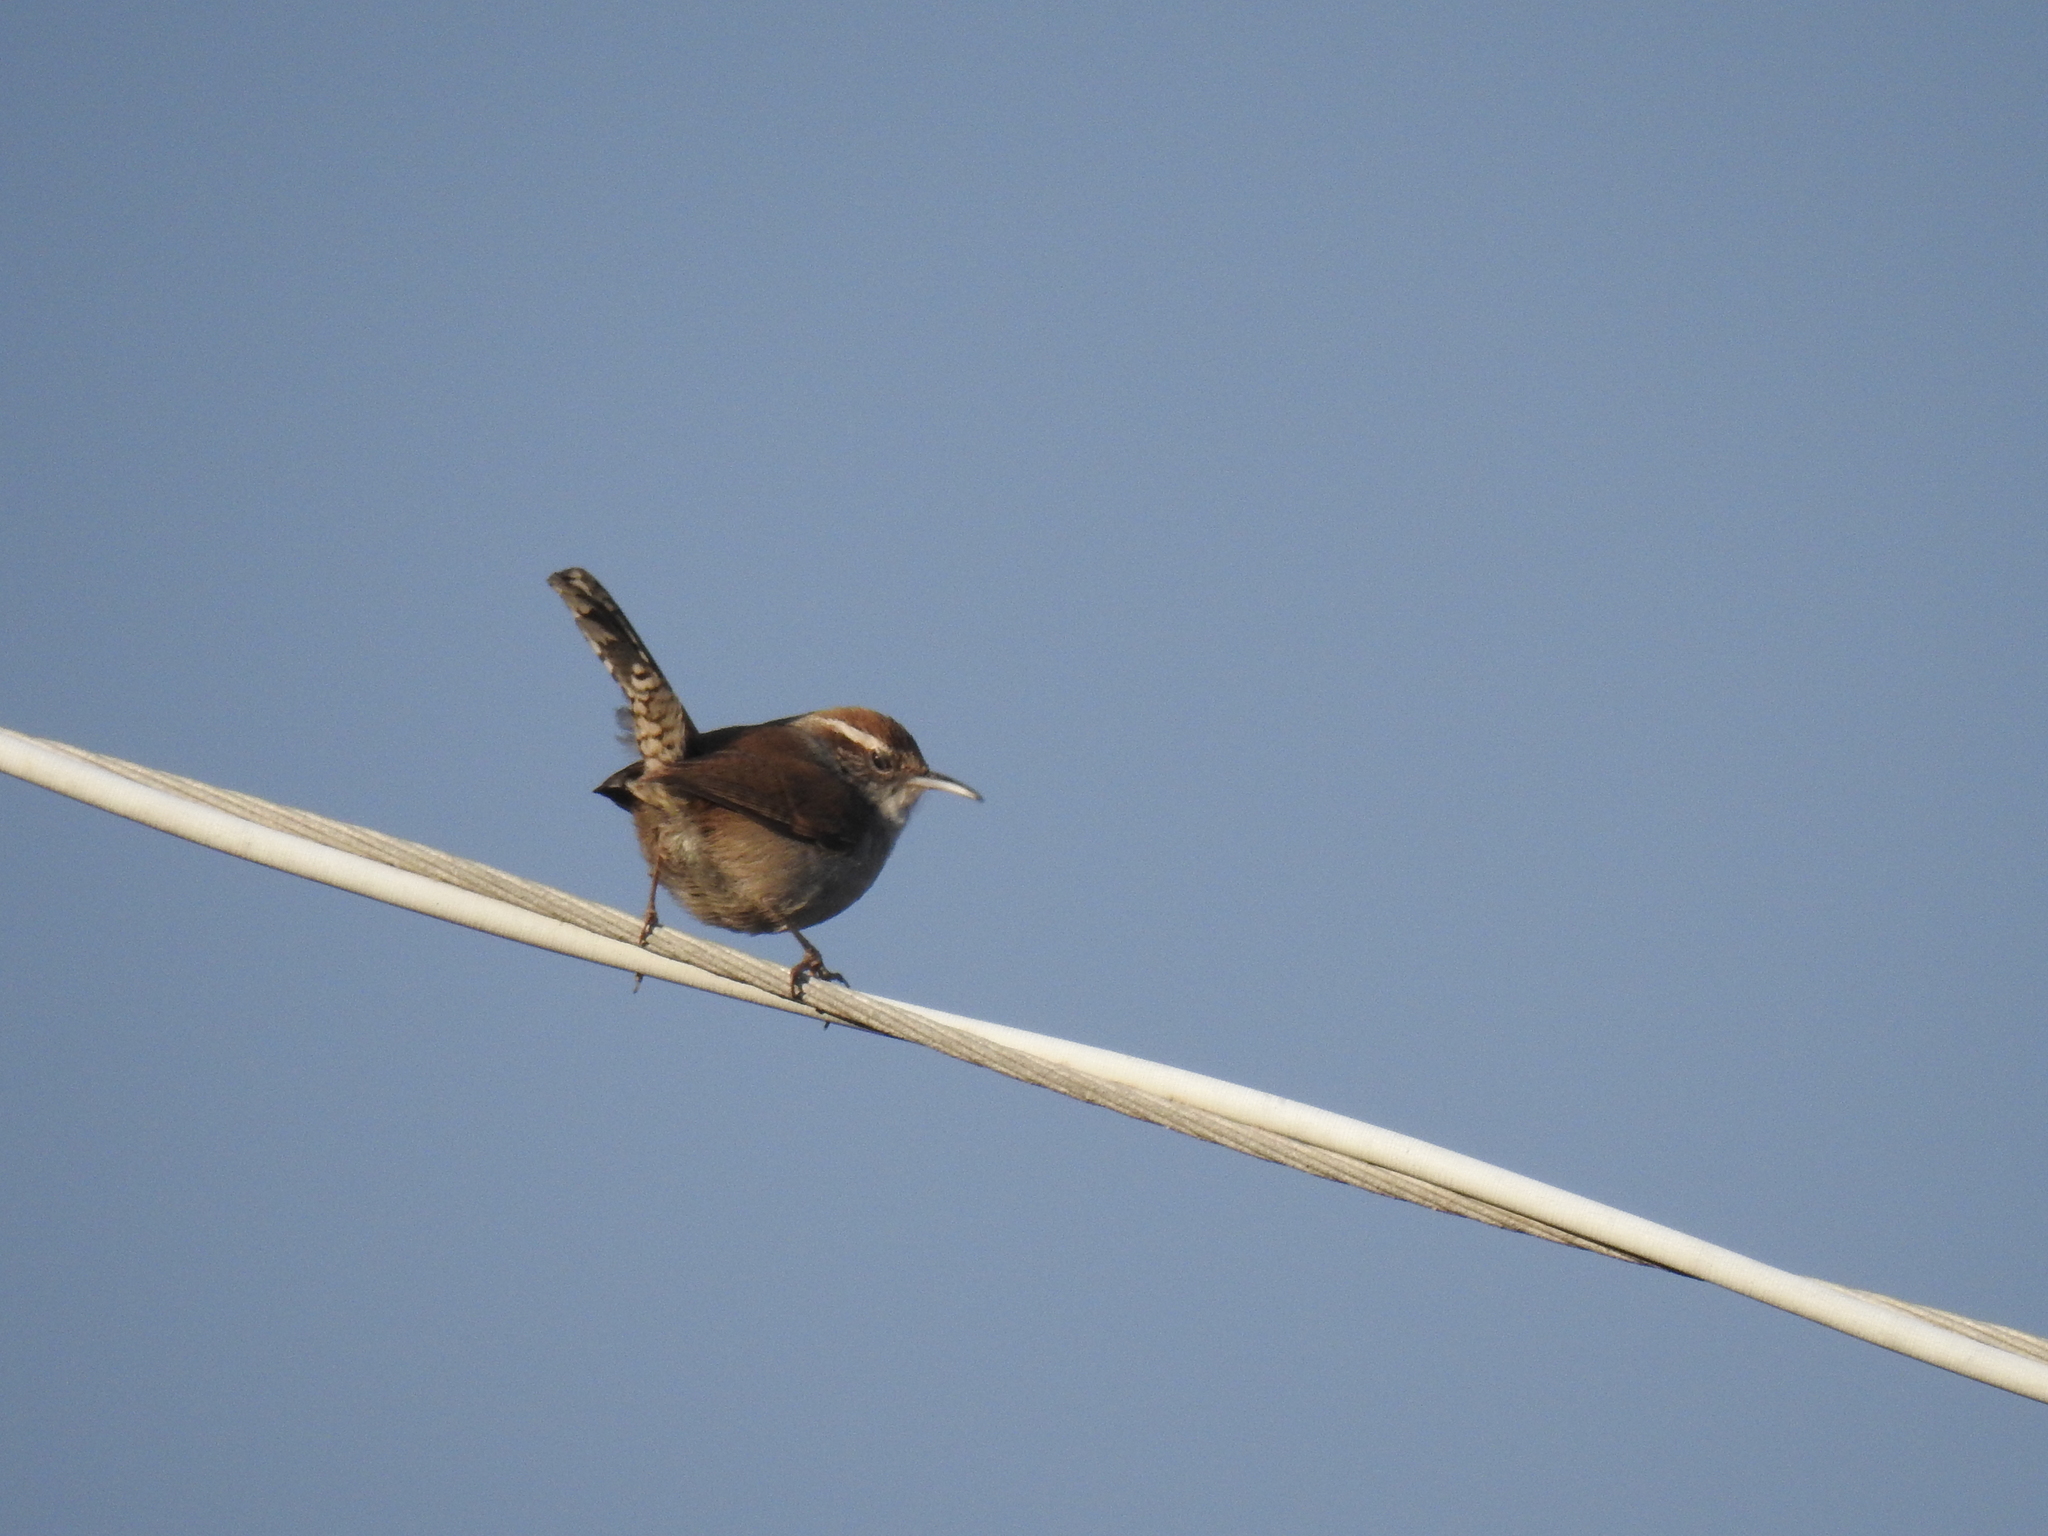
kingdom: Animalia
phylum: Chordata
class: Aves
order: Passeriformes
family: Troglodytidae
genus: Thryomanes
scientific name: Thryomanes bewickii
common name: Bewick's wren
